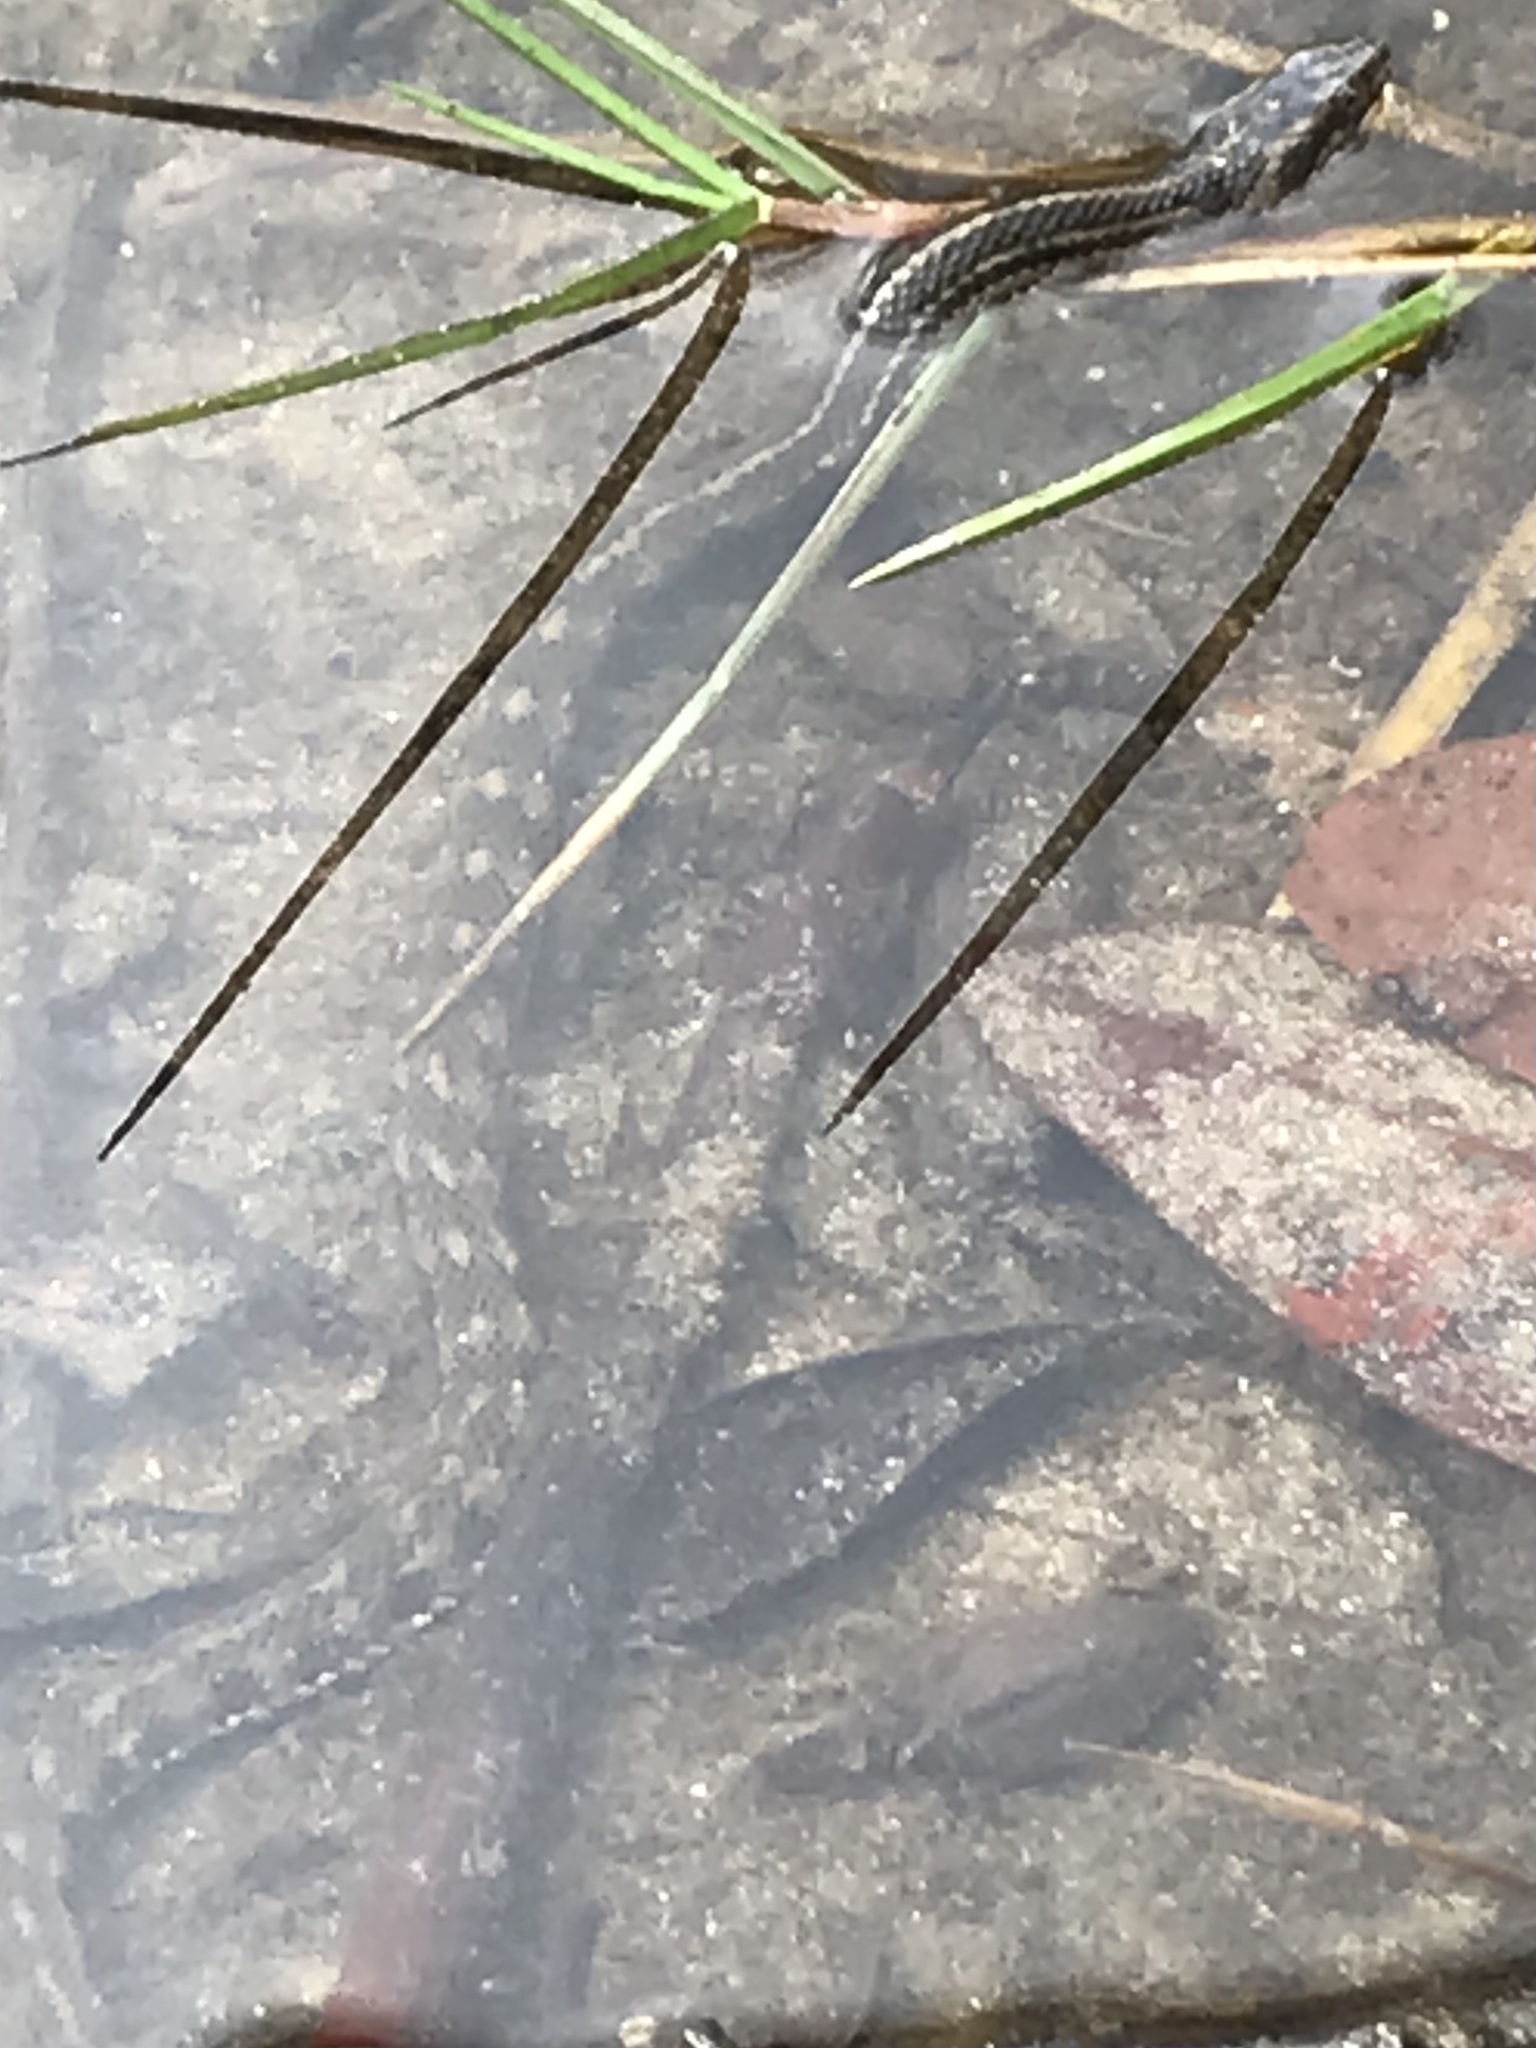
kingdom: Animalia
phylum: Chordata
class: Squamata
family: Colubridae
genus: Nerodia
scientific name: Nerodia clarkii
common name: Atlantic saltmarsh snake
